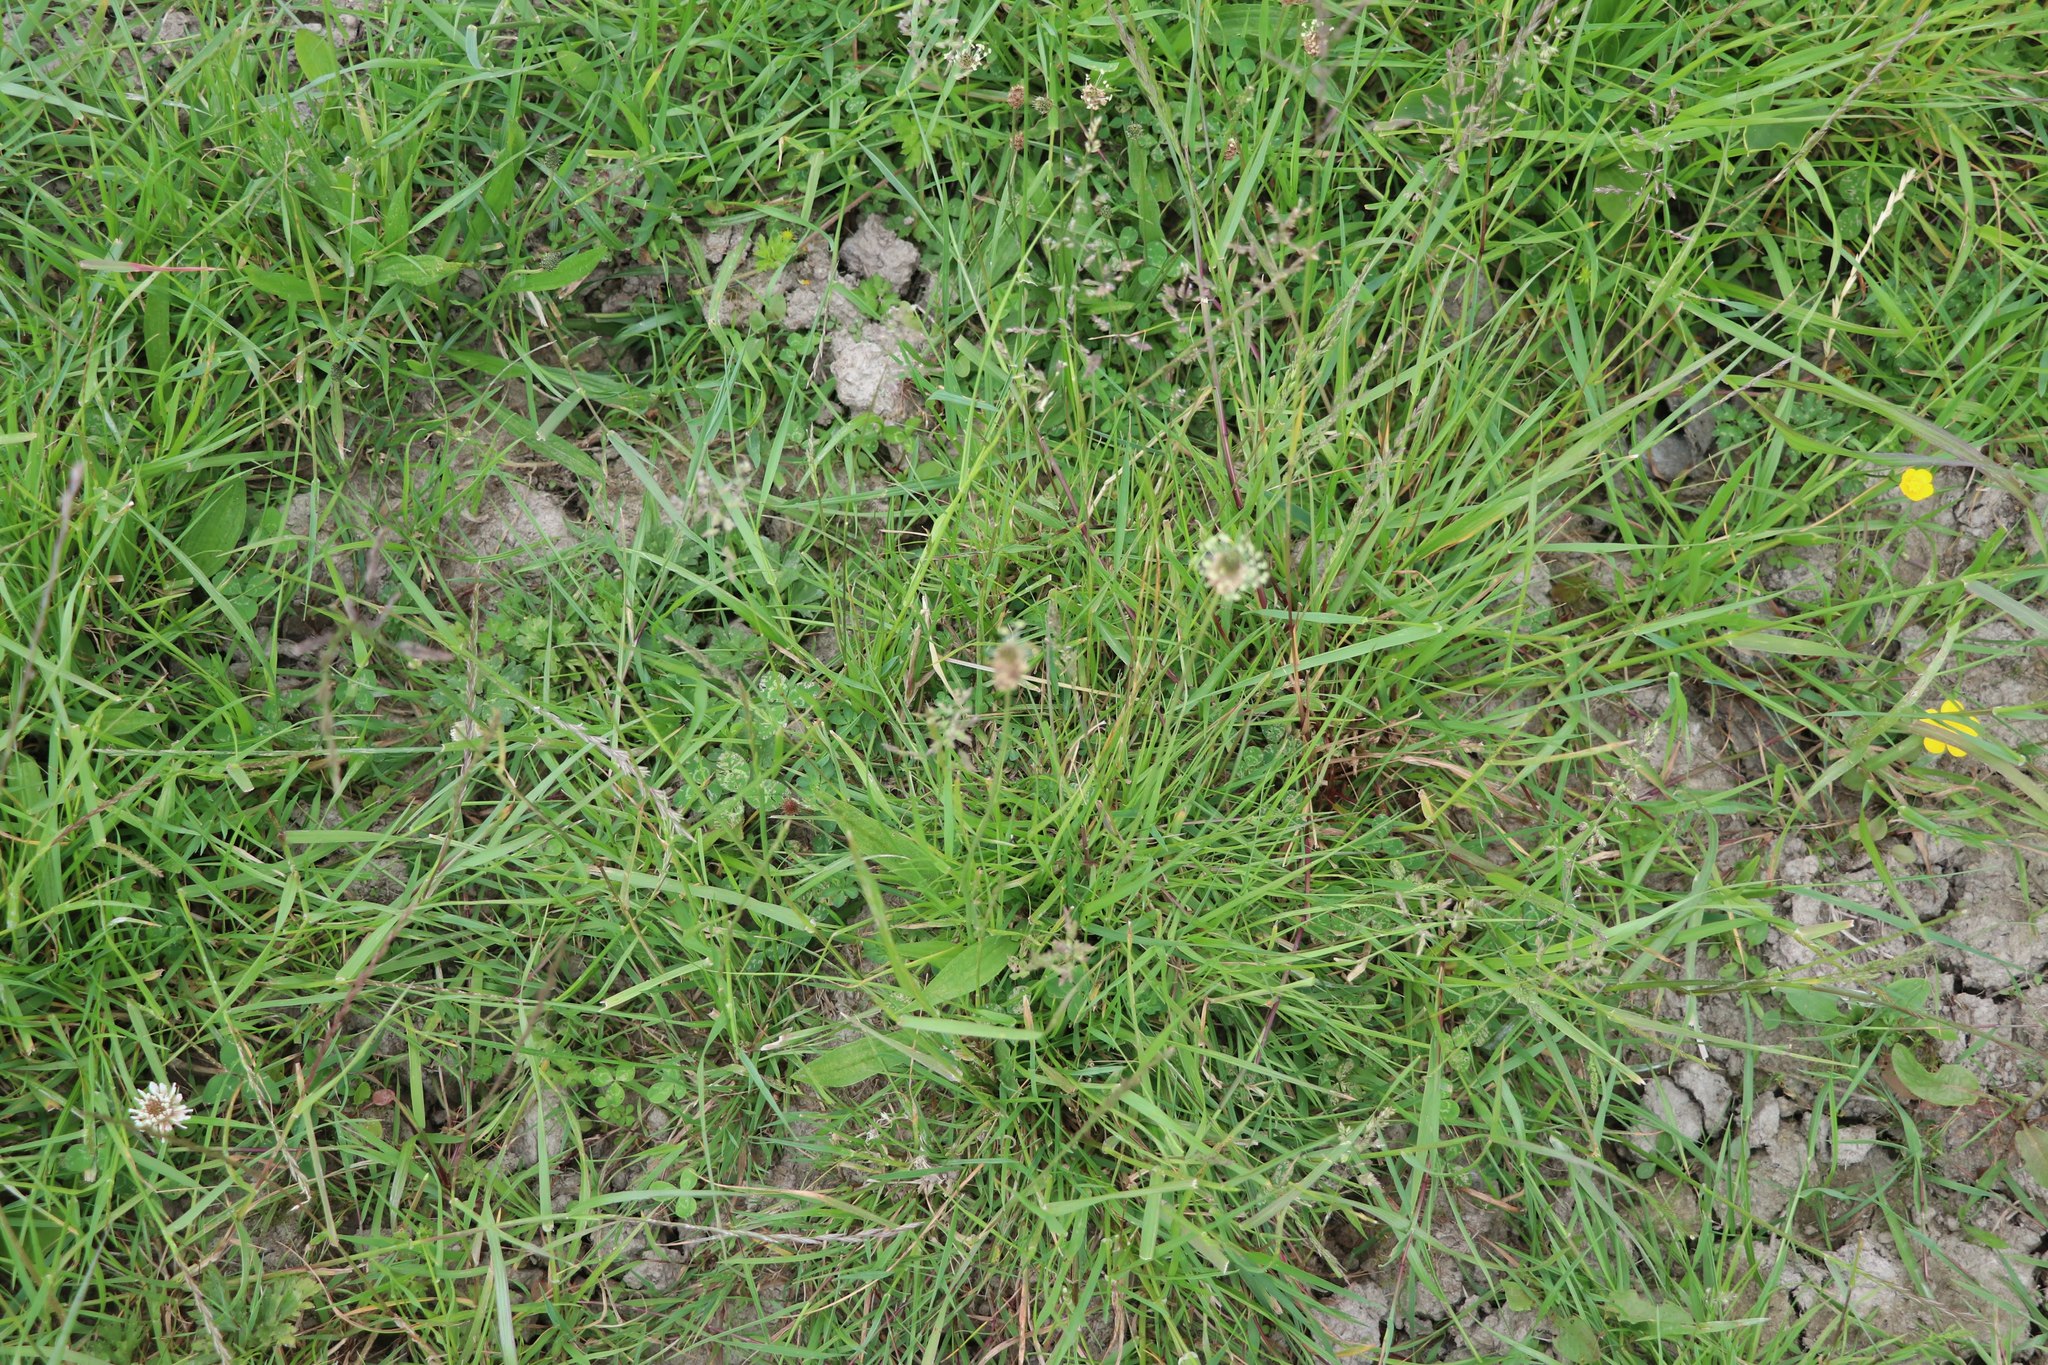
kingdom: Plantae
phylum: Tracheophyta
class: Magnoliopsida
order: Lamiales
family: Plantaginaceae
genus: Plantago
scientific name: Plantago lanceolata
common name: Ribwort plantain
